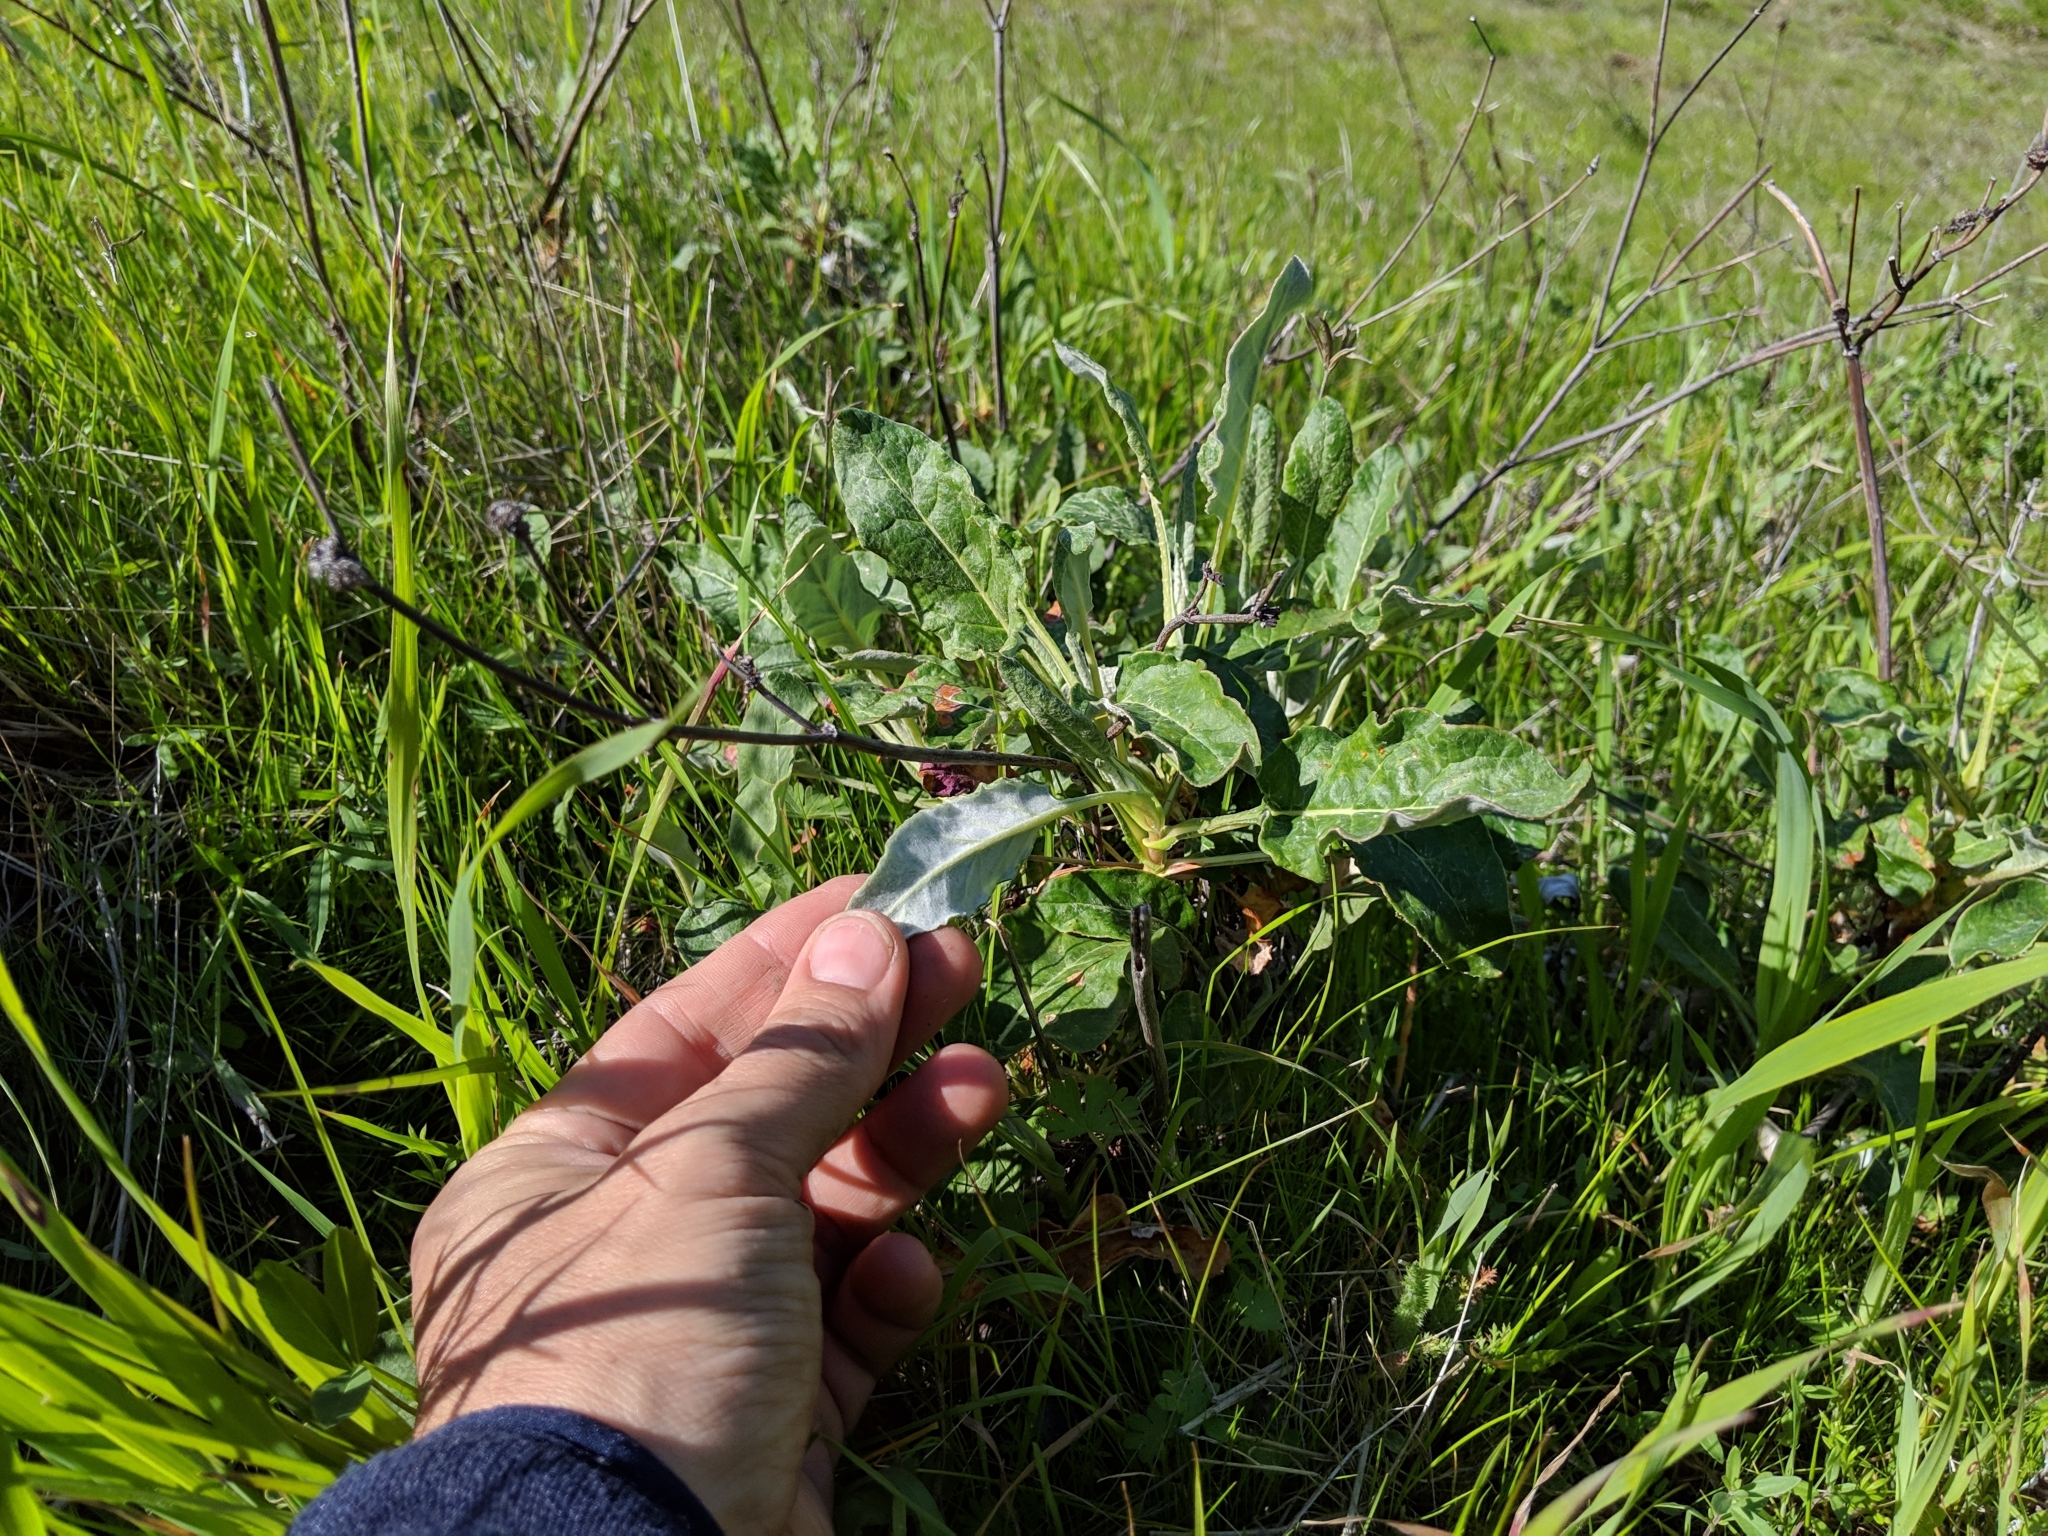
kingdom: Plantae
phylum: Tracheophyta
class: Magnoliopsida
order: Caryophyllales
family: Polygonaceae
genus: Eriogonum
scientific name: Eriogonum nudum
